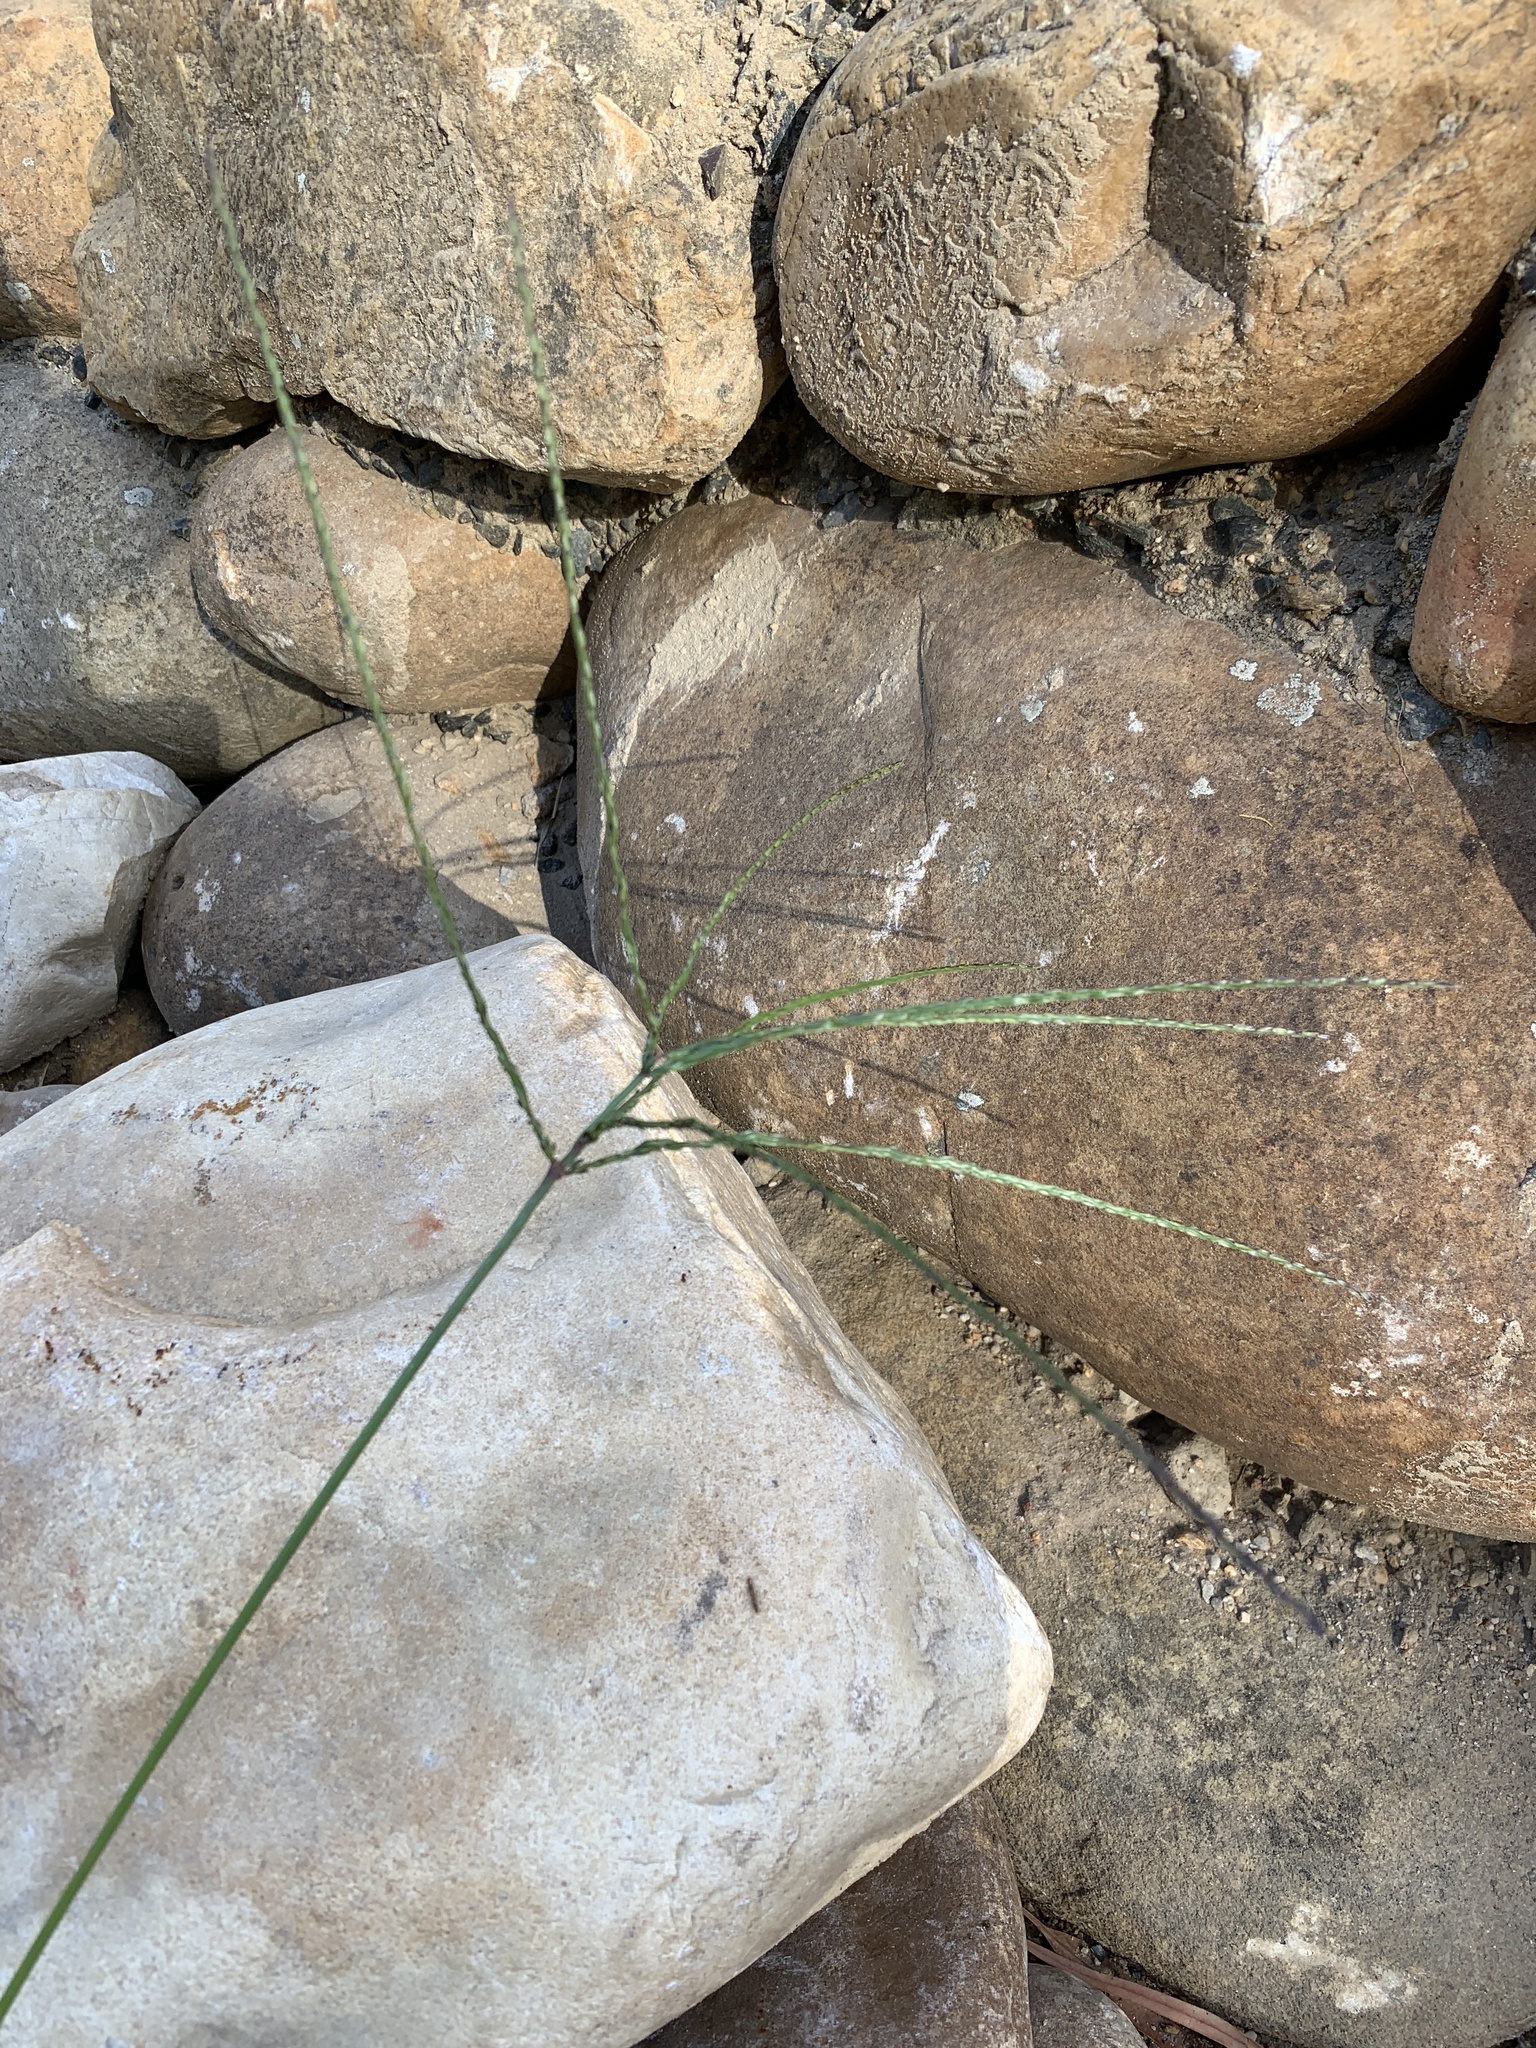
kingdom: Plantae
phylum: Tracheophyta
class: Liliopsida
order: Poales
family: Poaceae
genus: Digitaria
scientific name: Digitaria sanguinalis
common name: Hairy crabgrass
